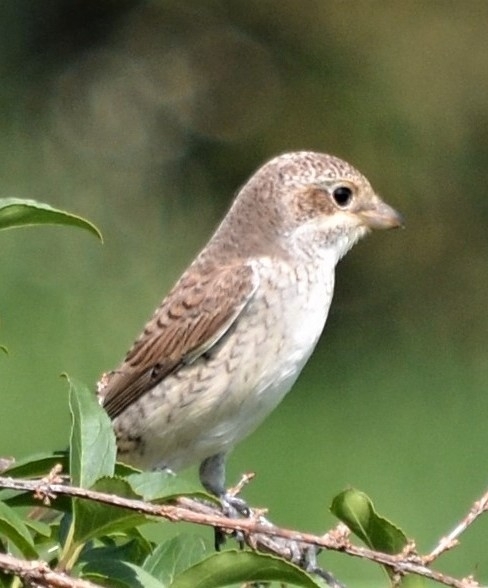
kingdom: Animalia
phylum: Chordata
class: Aves
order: Passeriformes
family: Laniidae
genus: Lanius
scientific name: Lanius collurio
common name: Red-backed shrike
